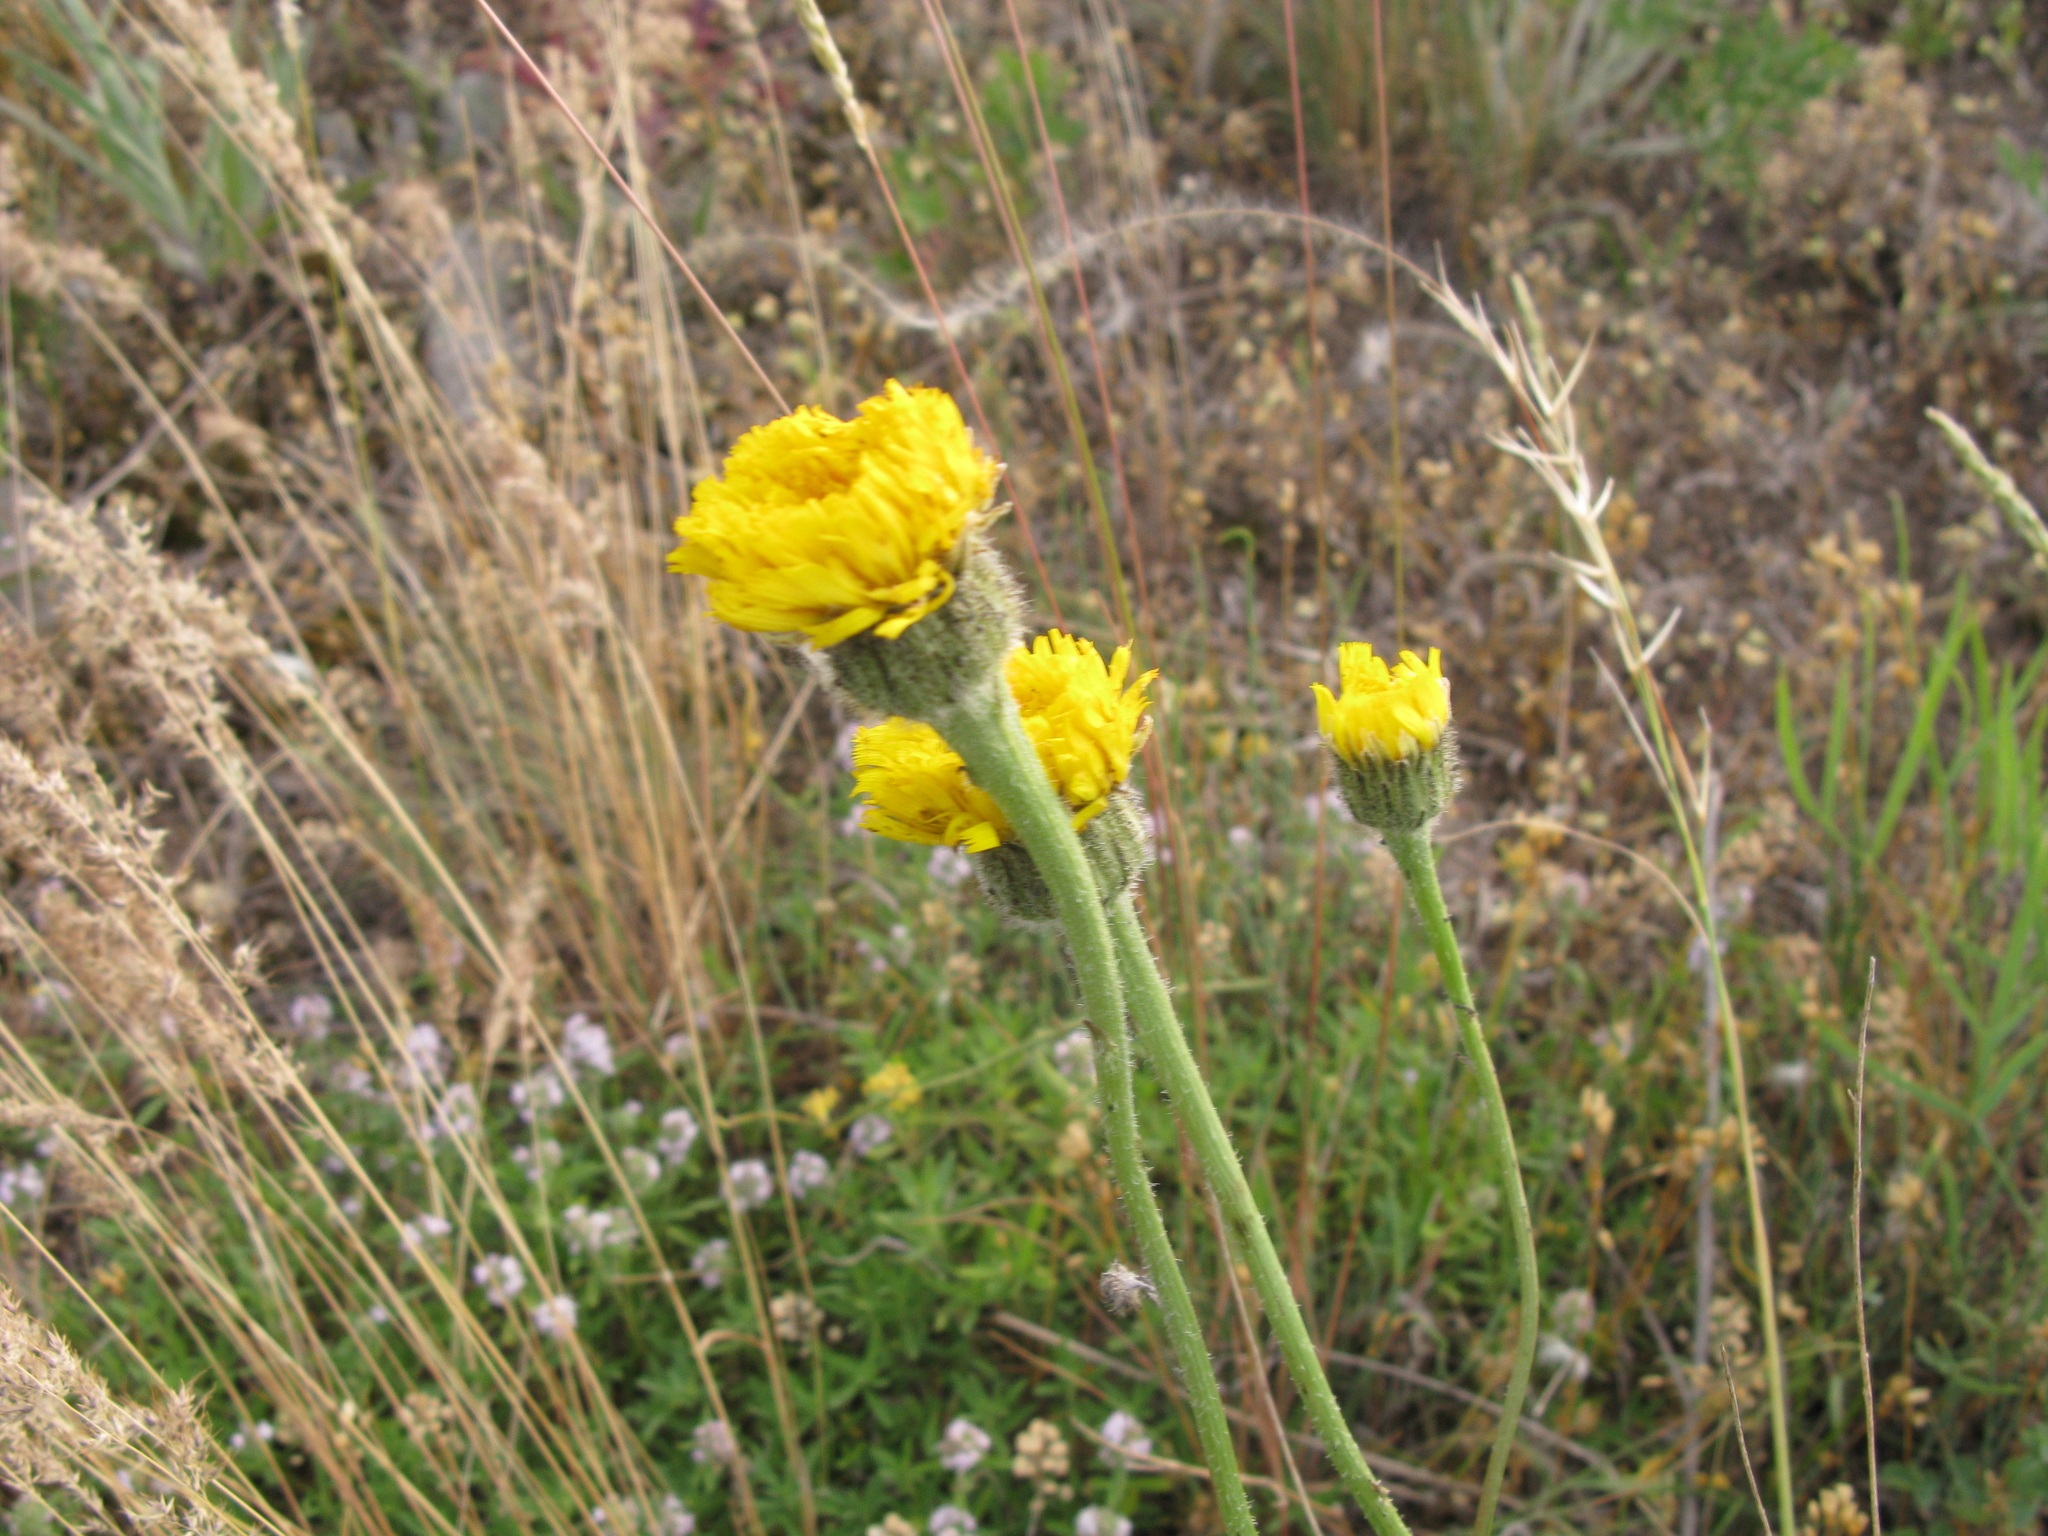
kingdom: Plantae
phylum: Tracheophyta
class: Magnoliopsida
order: Asterales
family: Asteraceae
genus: Trommsdorffia
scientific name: Trommsdorffia maculata
